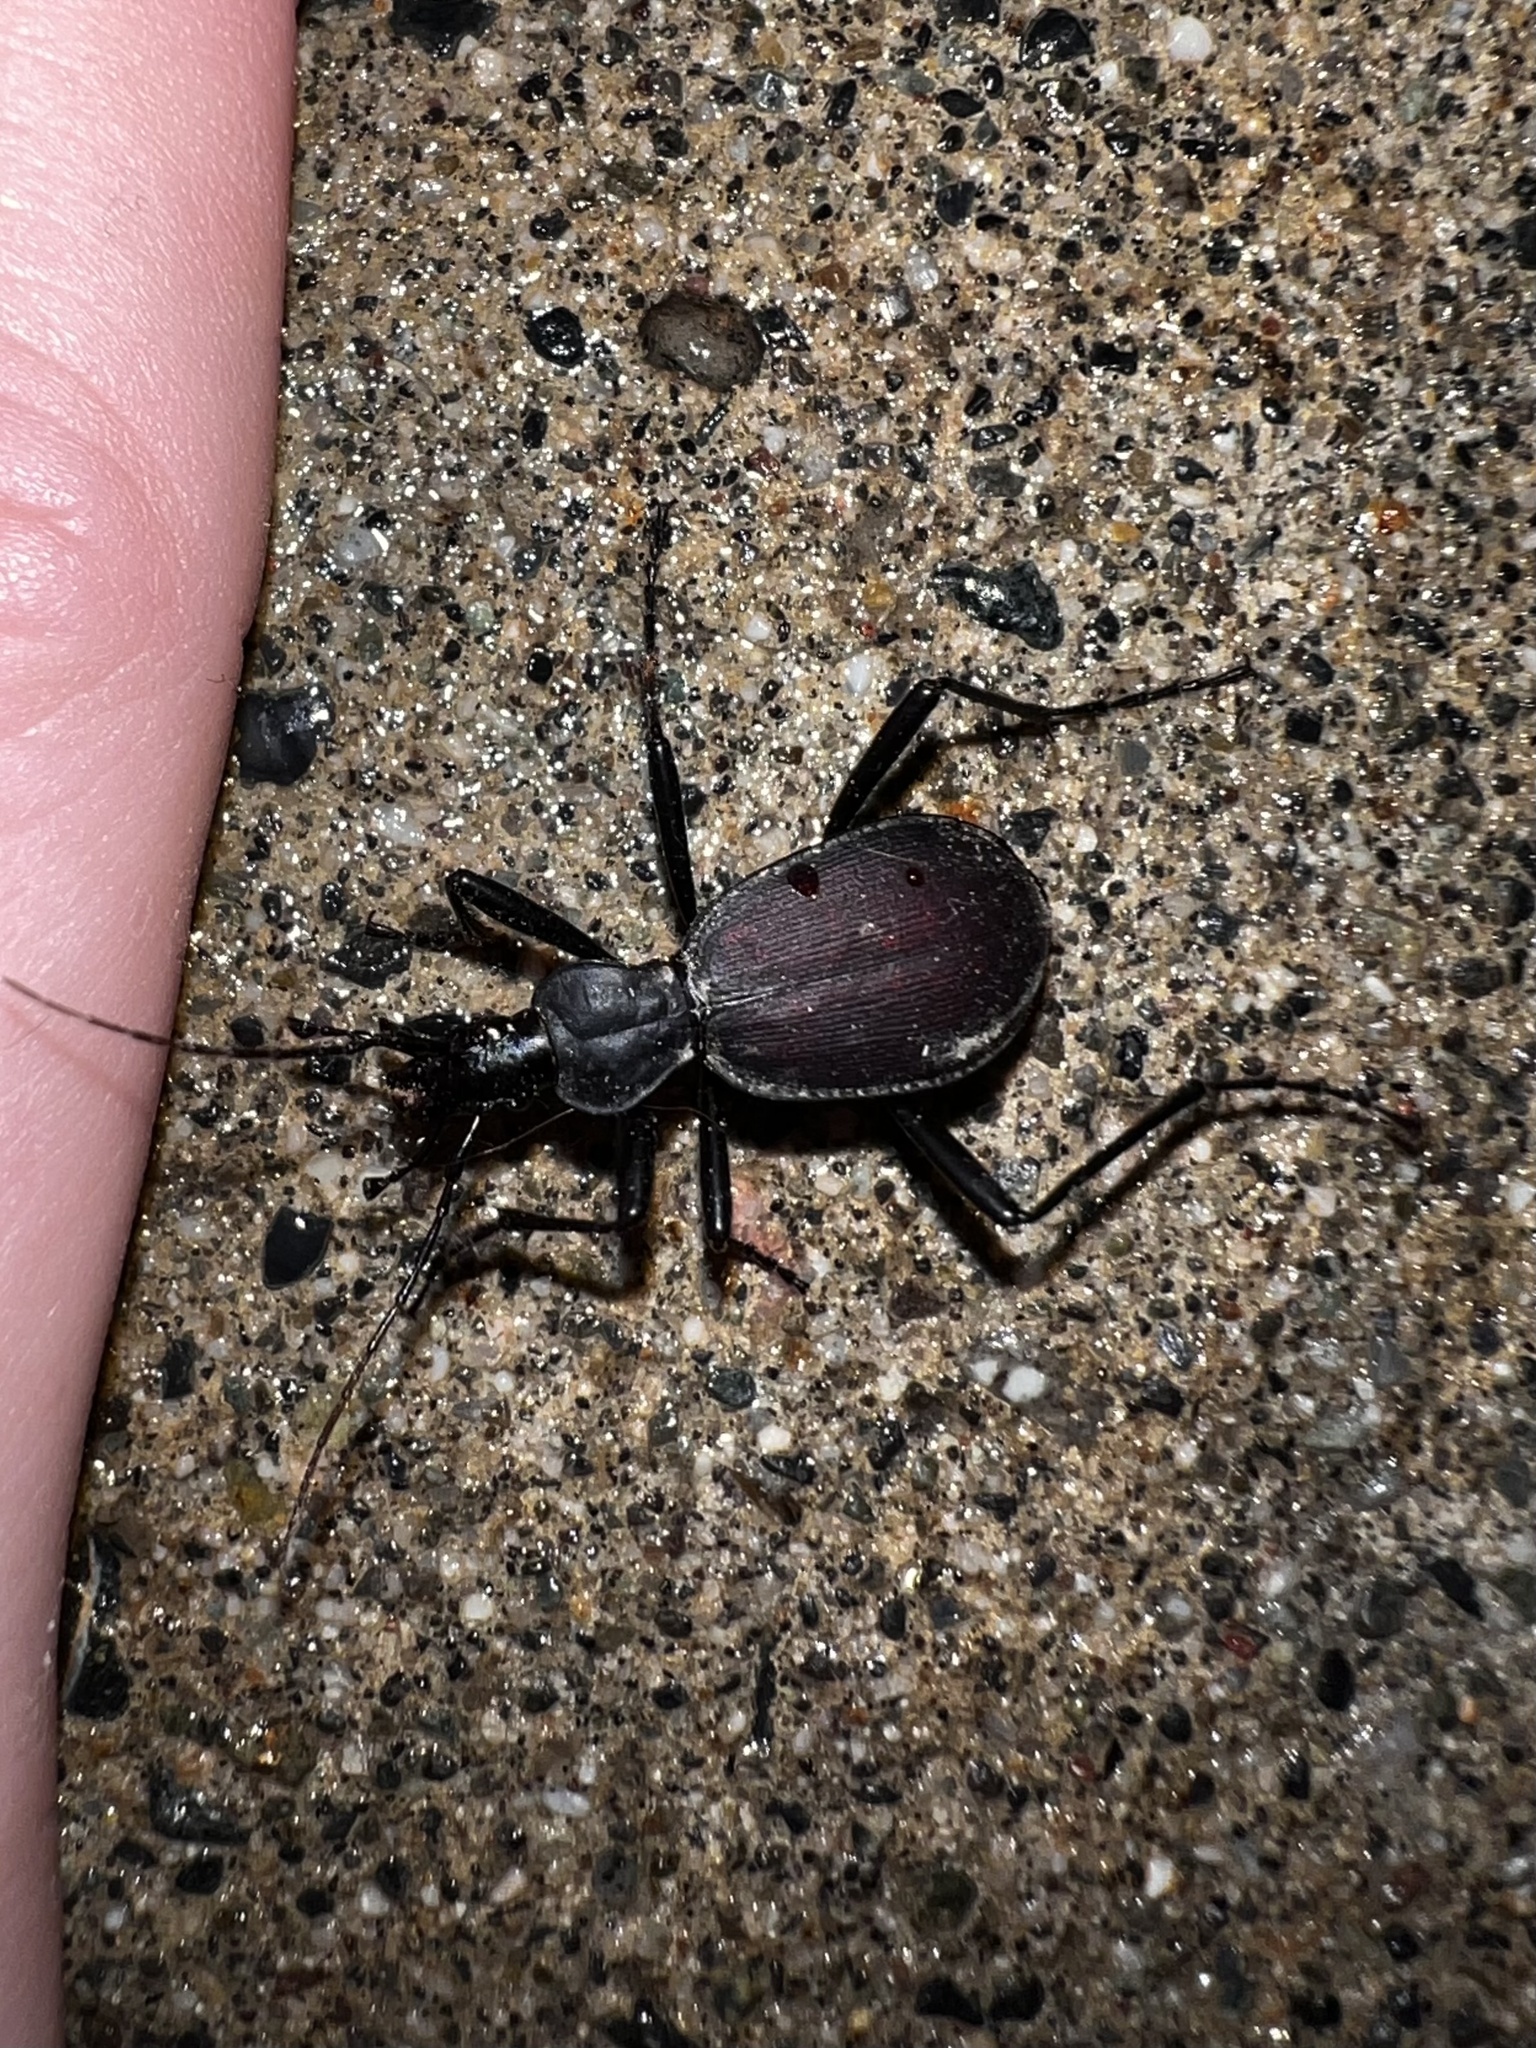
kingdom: Animalia
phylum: Arthropoda
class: Insecta
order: Coleoptera
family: Carabidae
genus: Scaphinotus
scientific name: Scaphinotus angusticollis
